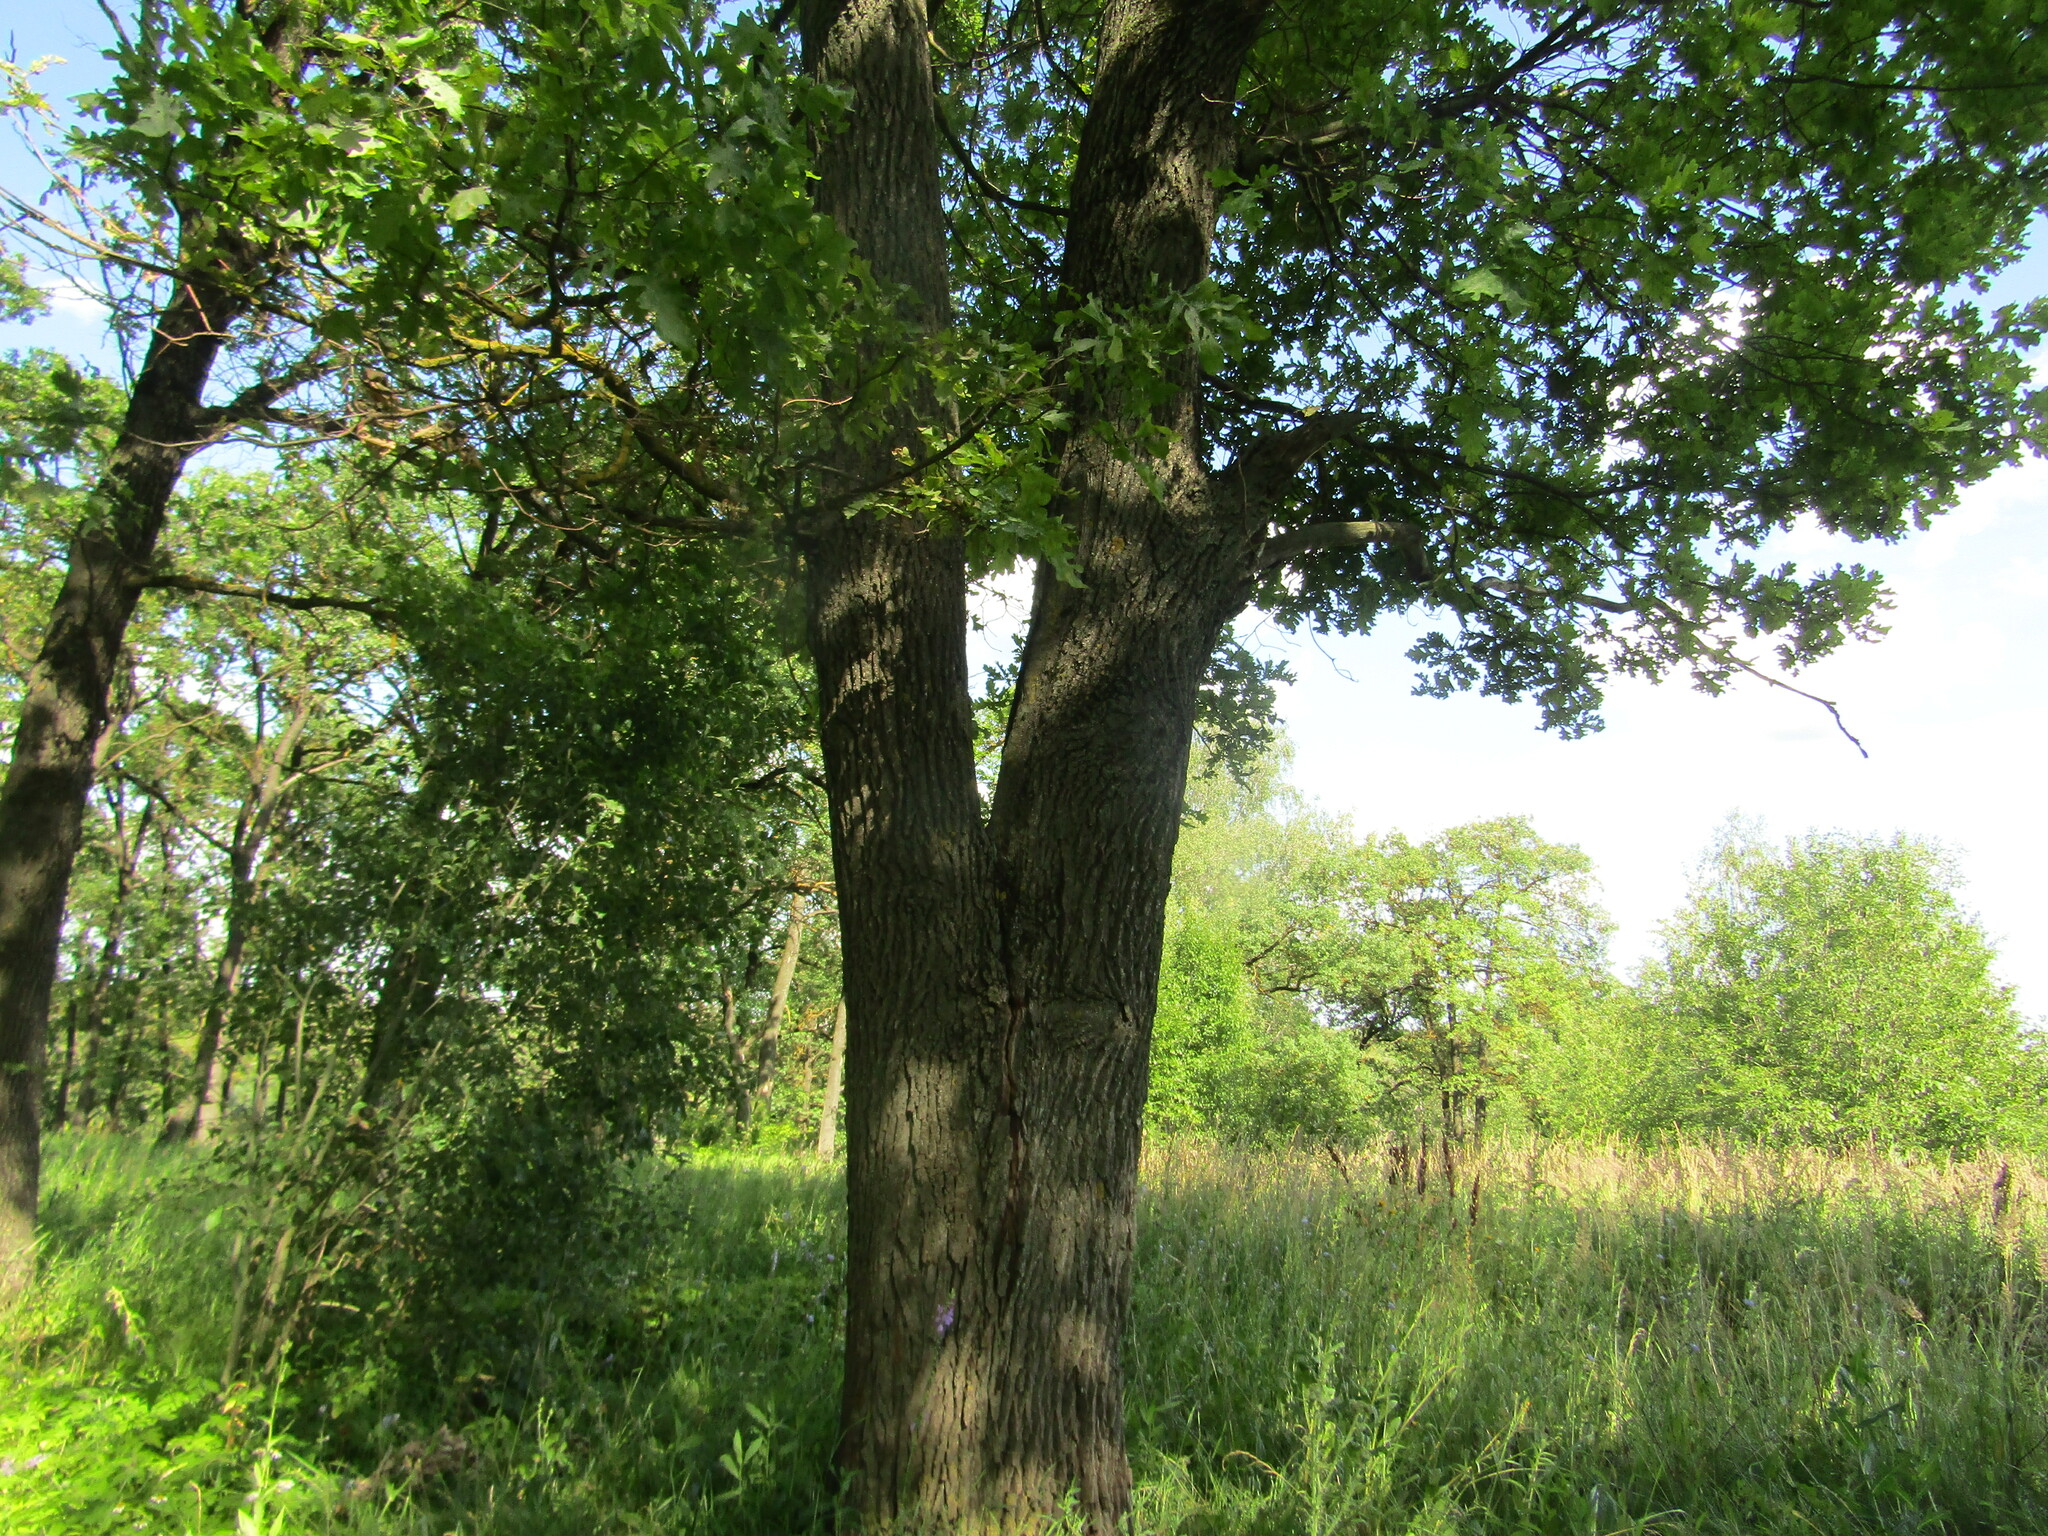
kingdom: Plantae
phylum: Tracheophyta
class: Magnoliopsida
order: Fagales
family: Fagaceae
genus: Quercus
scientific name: Quercus robur
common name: Pedunculate oak
